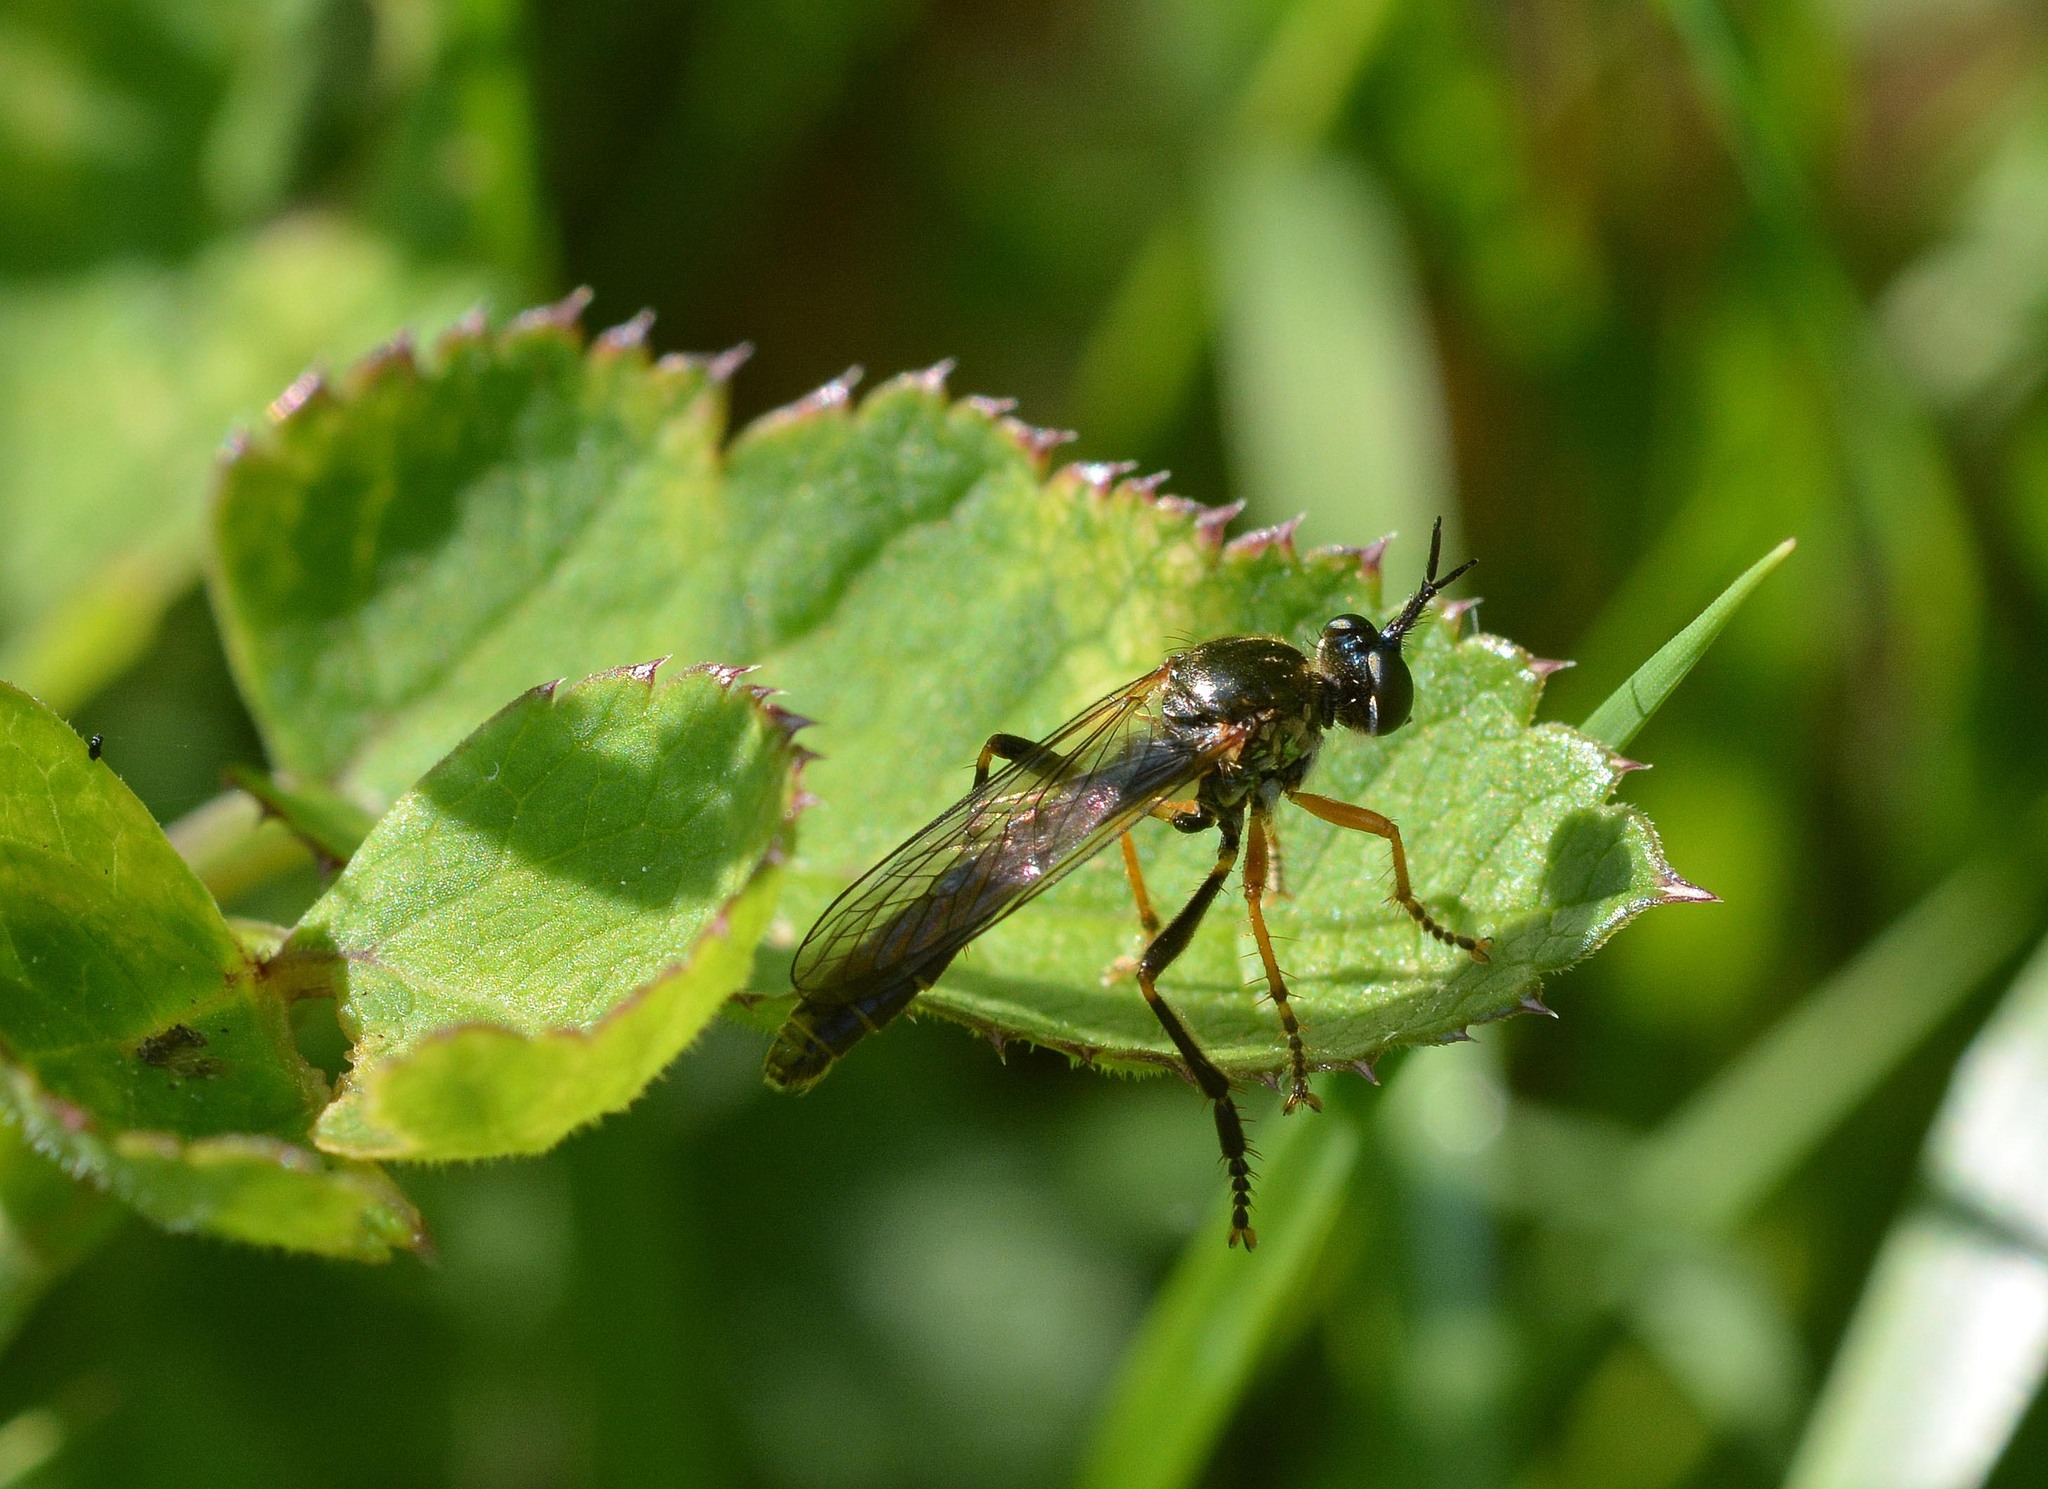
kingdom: Animalia
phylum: Arthropoda
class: Insecta
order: Diptera
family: Asilidae
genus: Dioctria
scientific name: Dioctria rufipes
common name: Common red-legged robberfly
